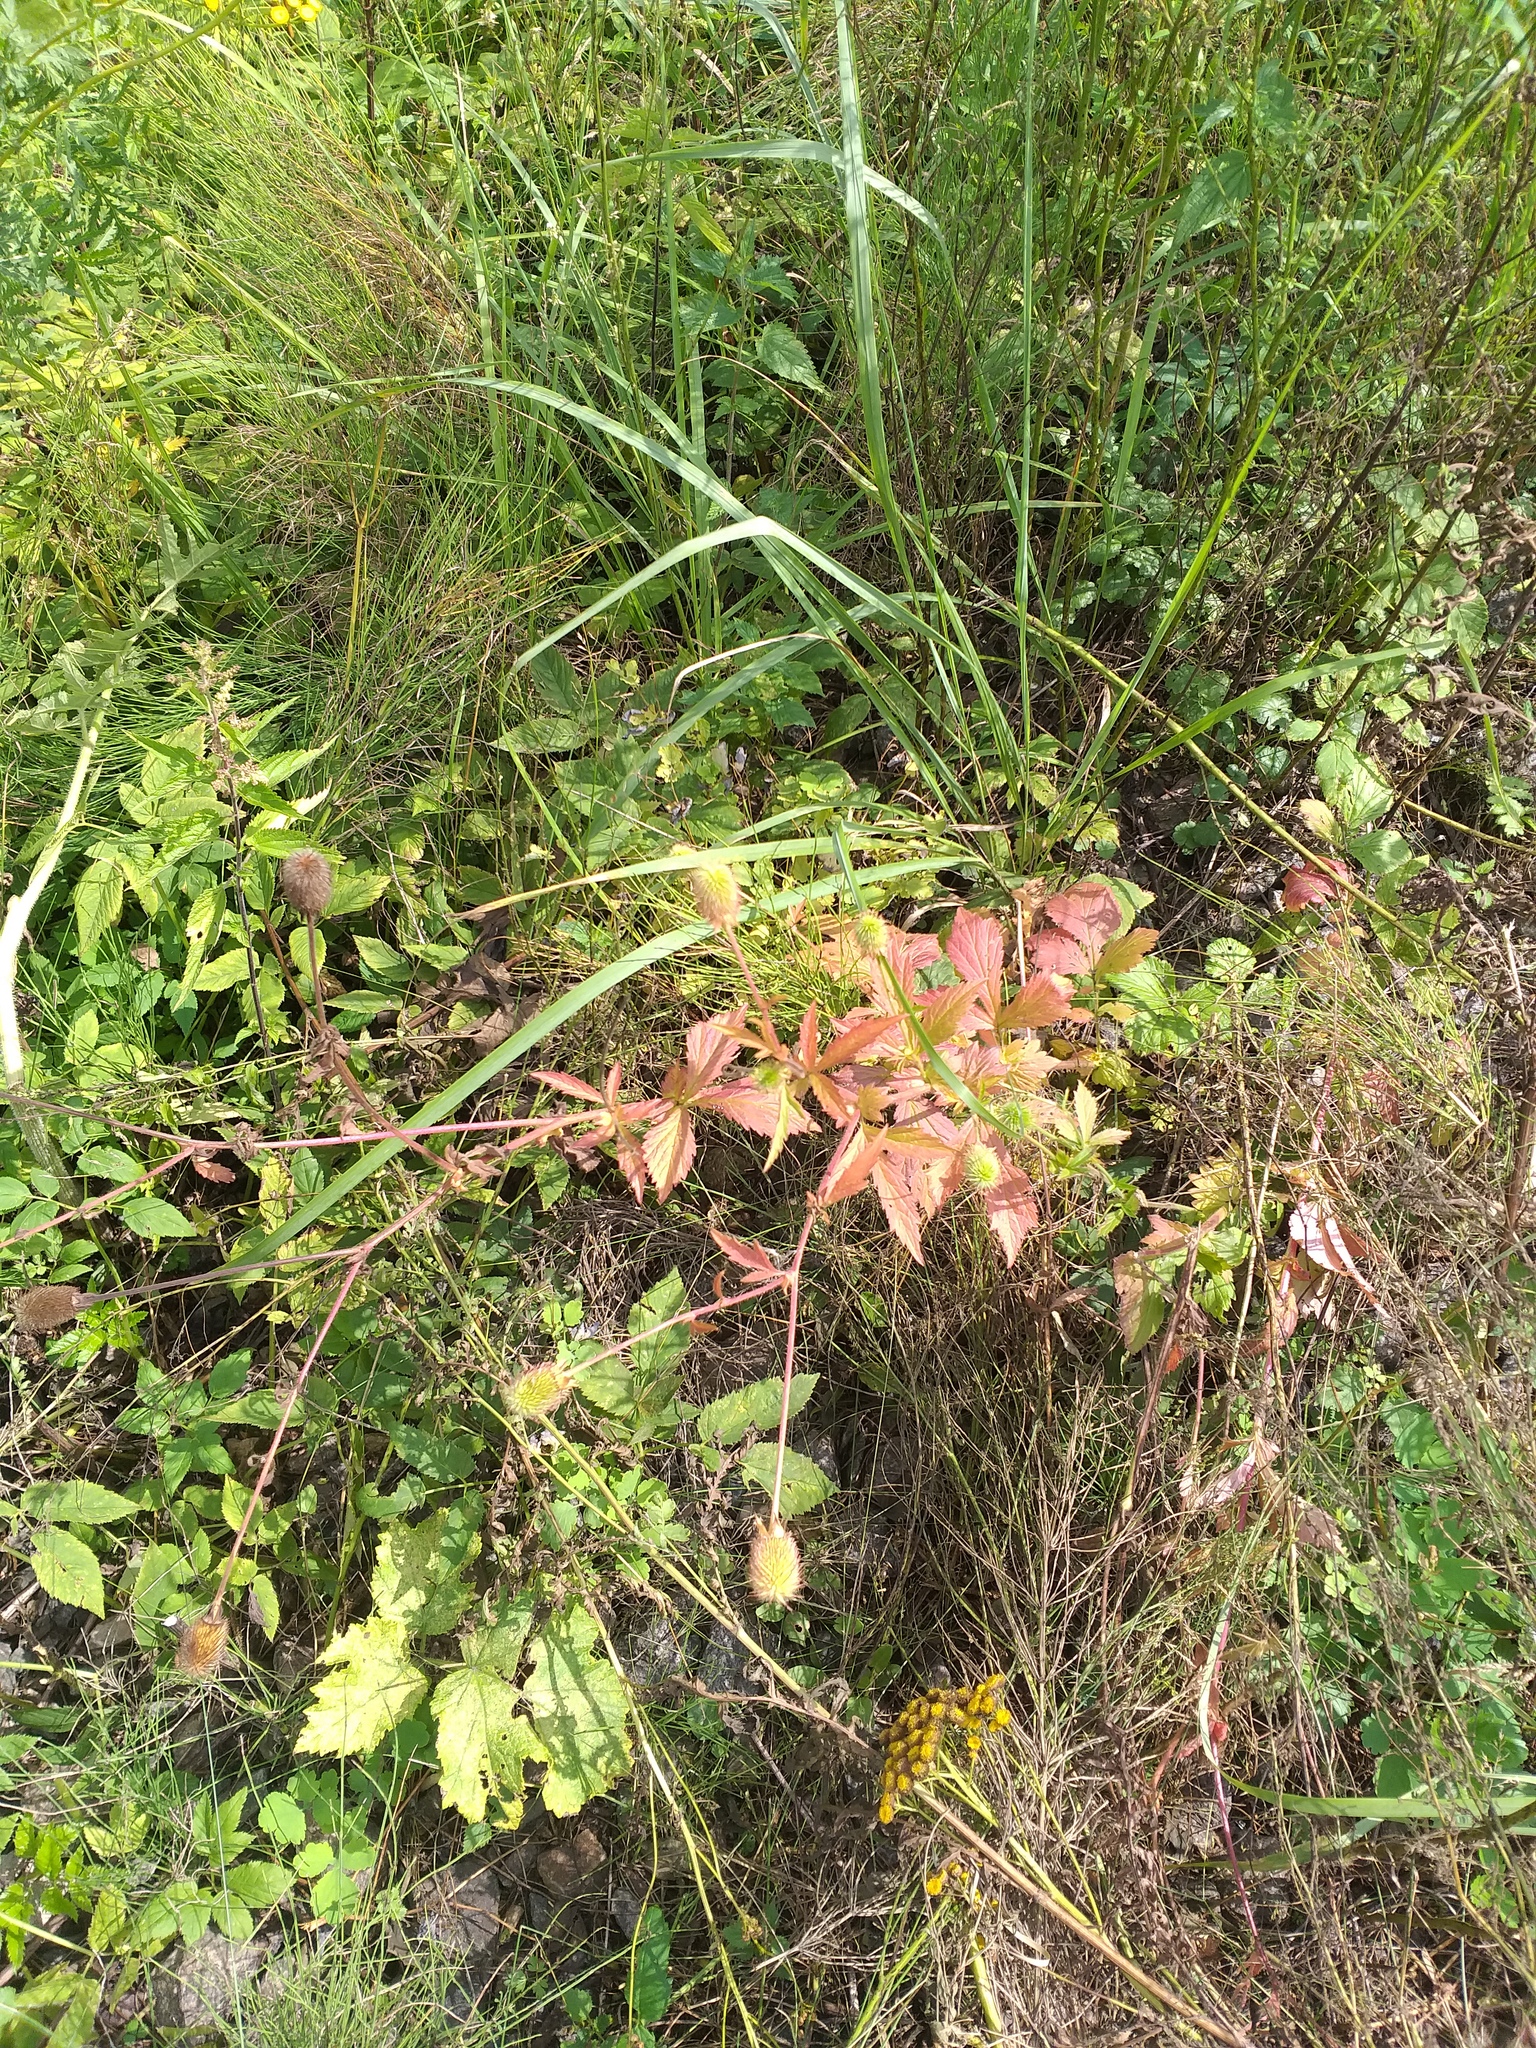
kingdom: Plantae
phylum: Tracheophyta
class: Magnoliopsida
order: Rosales
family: Rosaceae
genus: Geum
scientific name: Geum aleppicum
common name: Yellow avens
